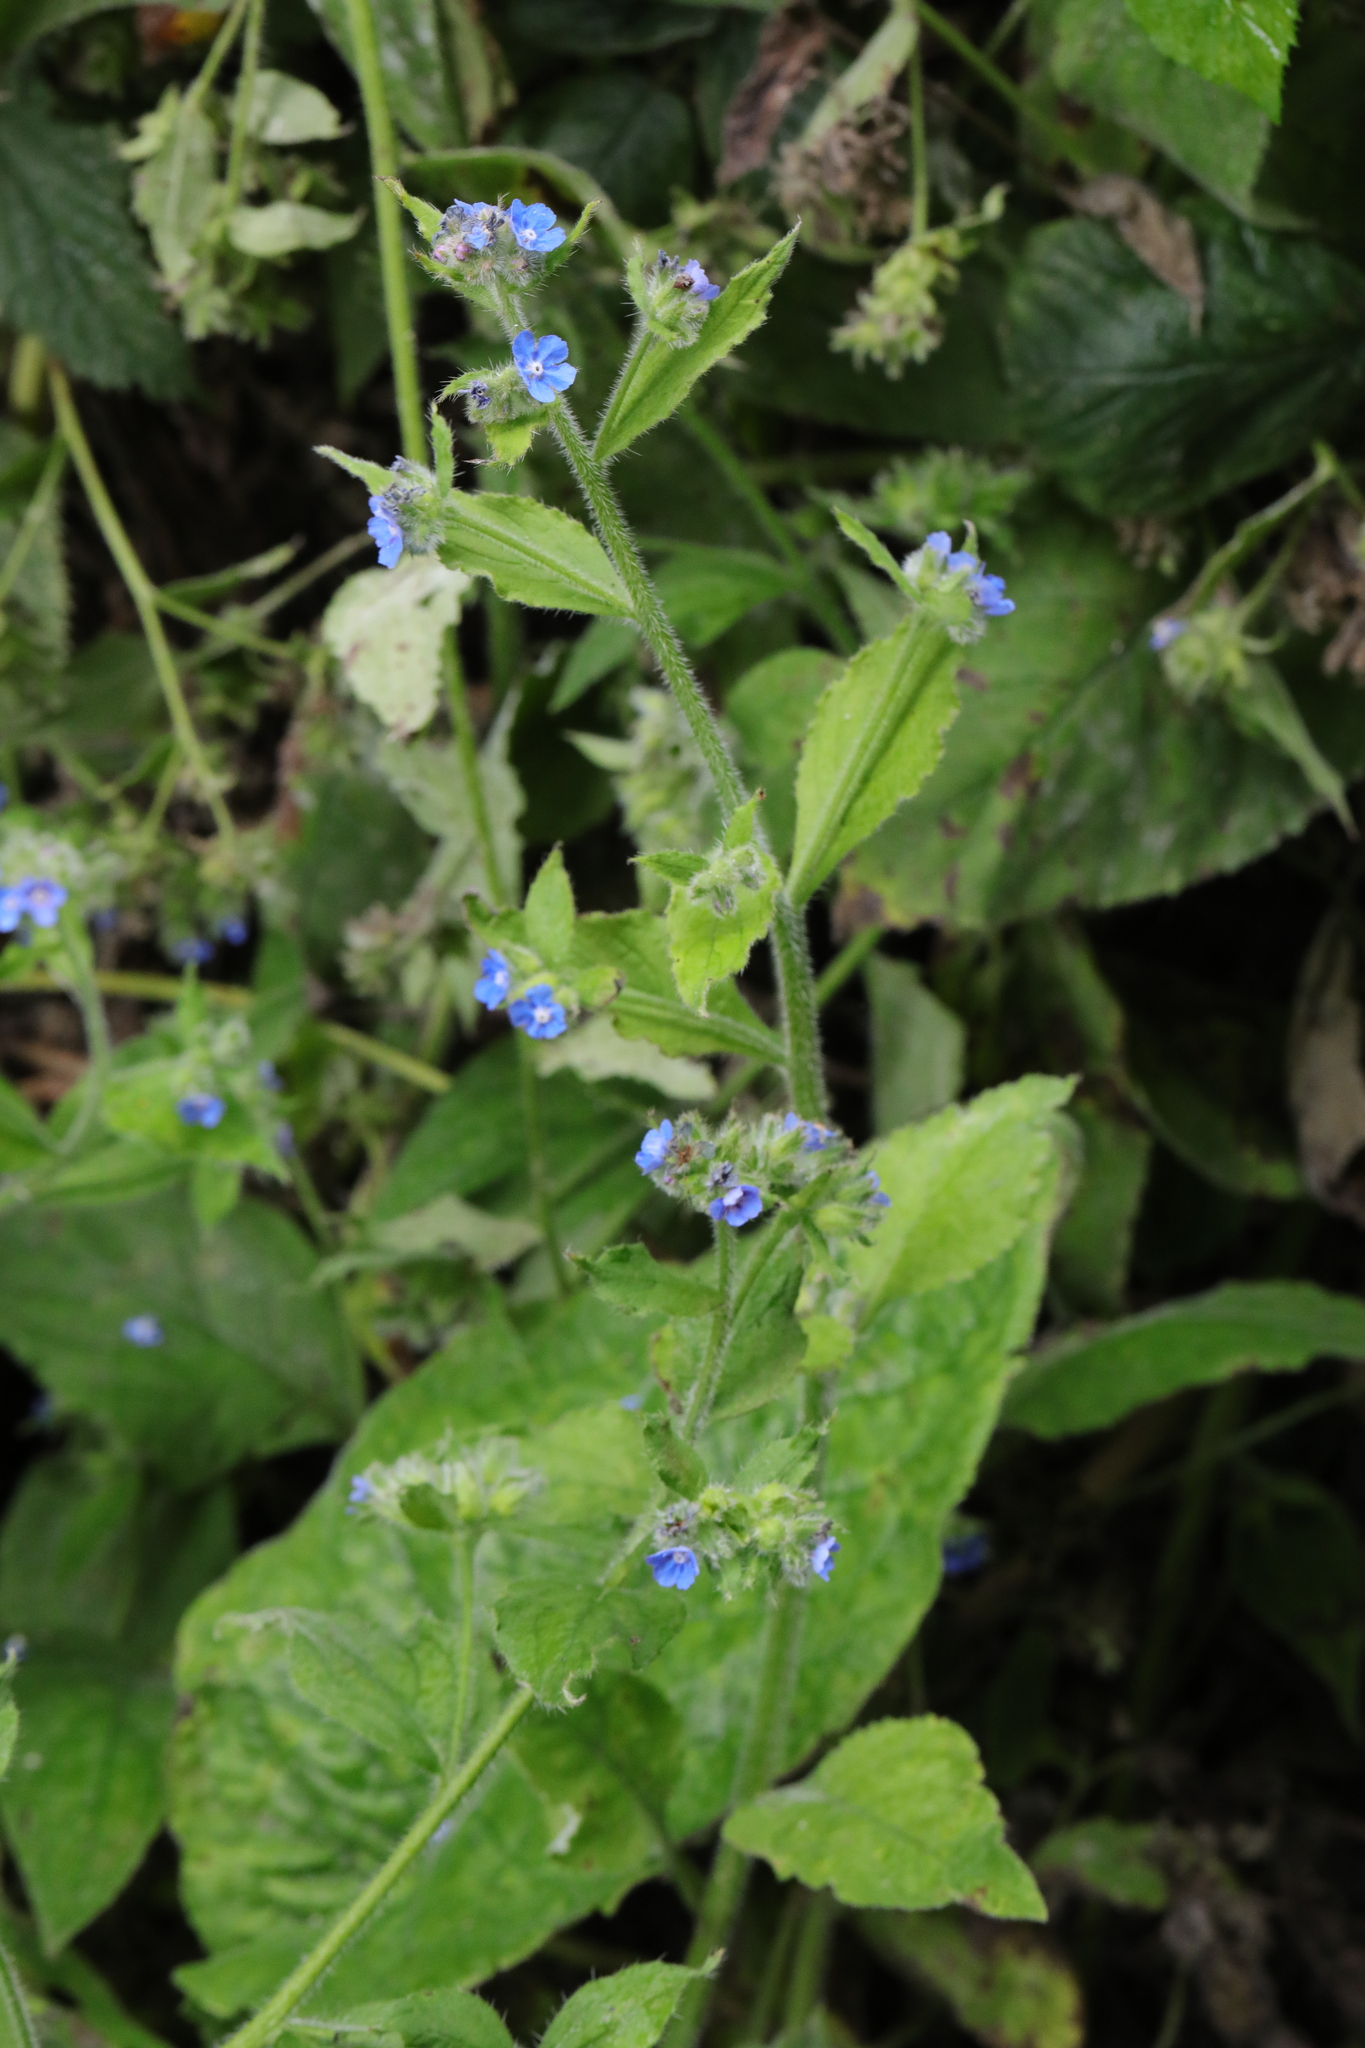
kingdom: Plantae
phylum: Tracheophyta
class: Magnoliopsida
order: Boraginales
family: Boraginaceae
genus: Pentaglottis
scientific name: Pentaglottis sempervirens
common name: Green alkanet
